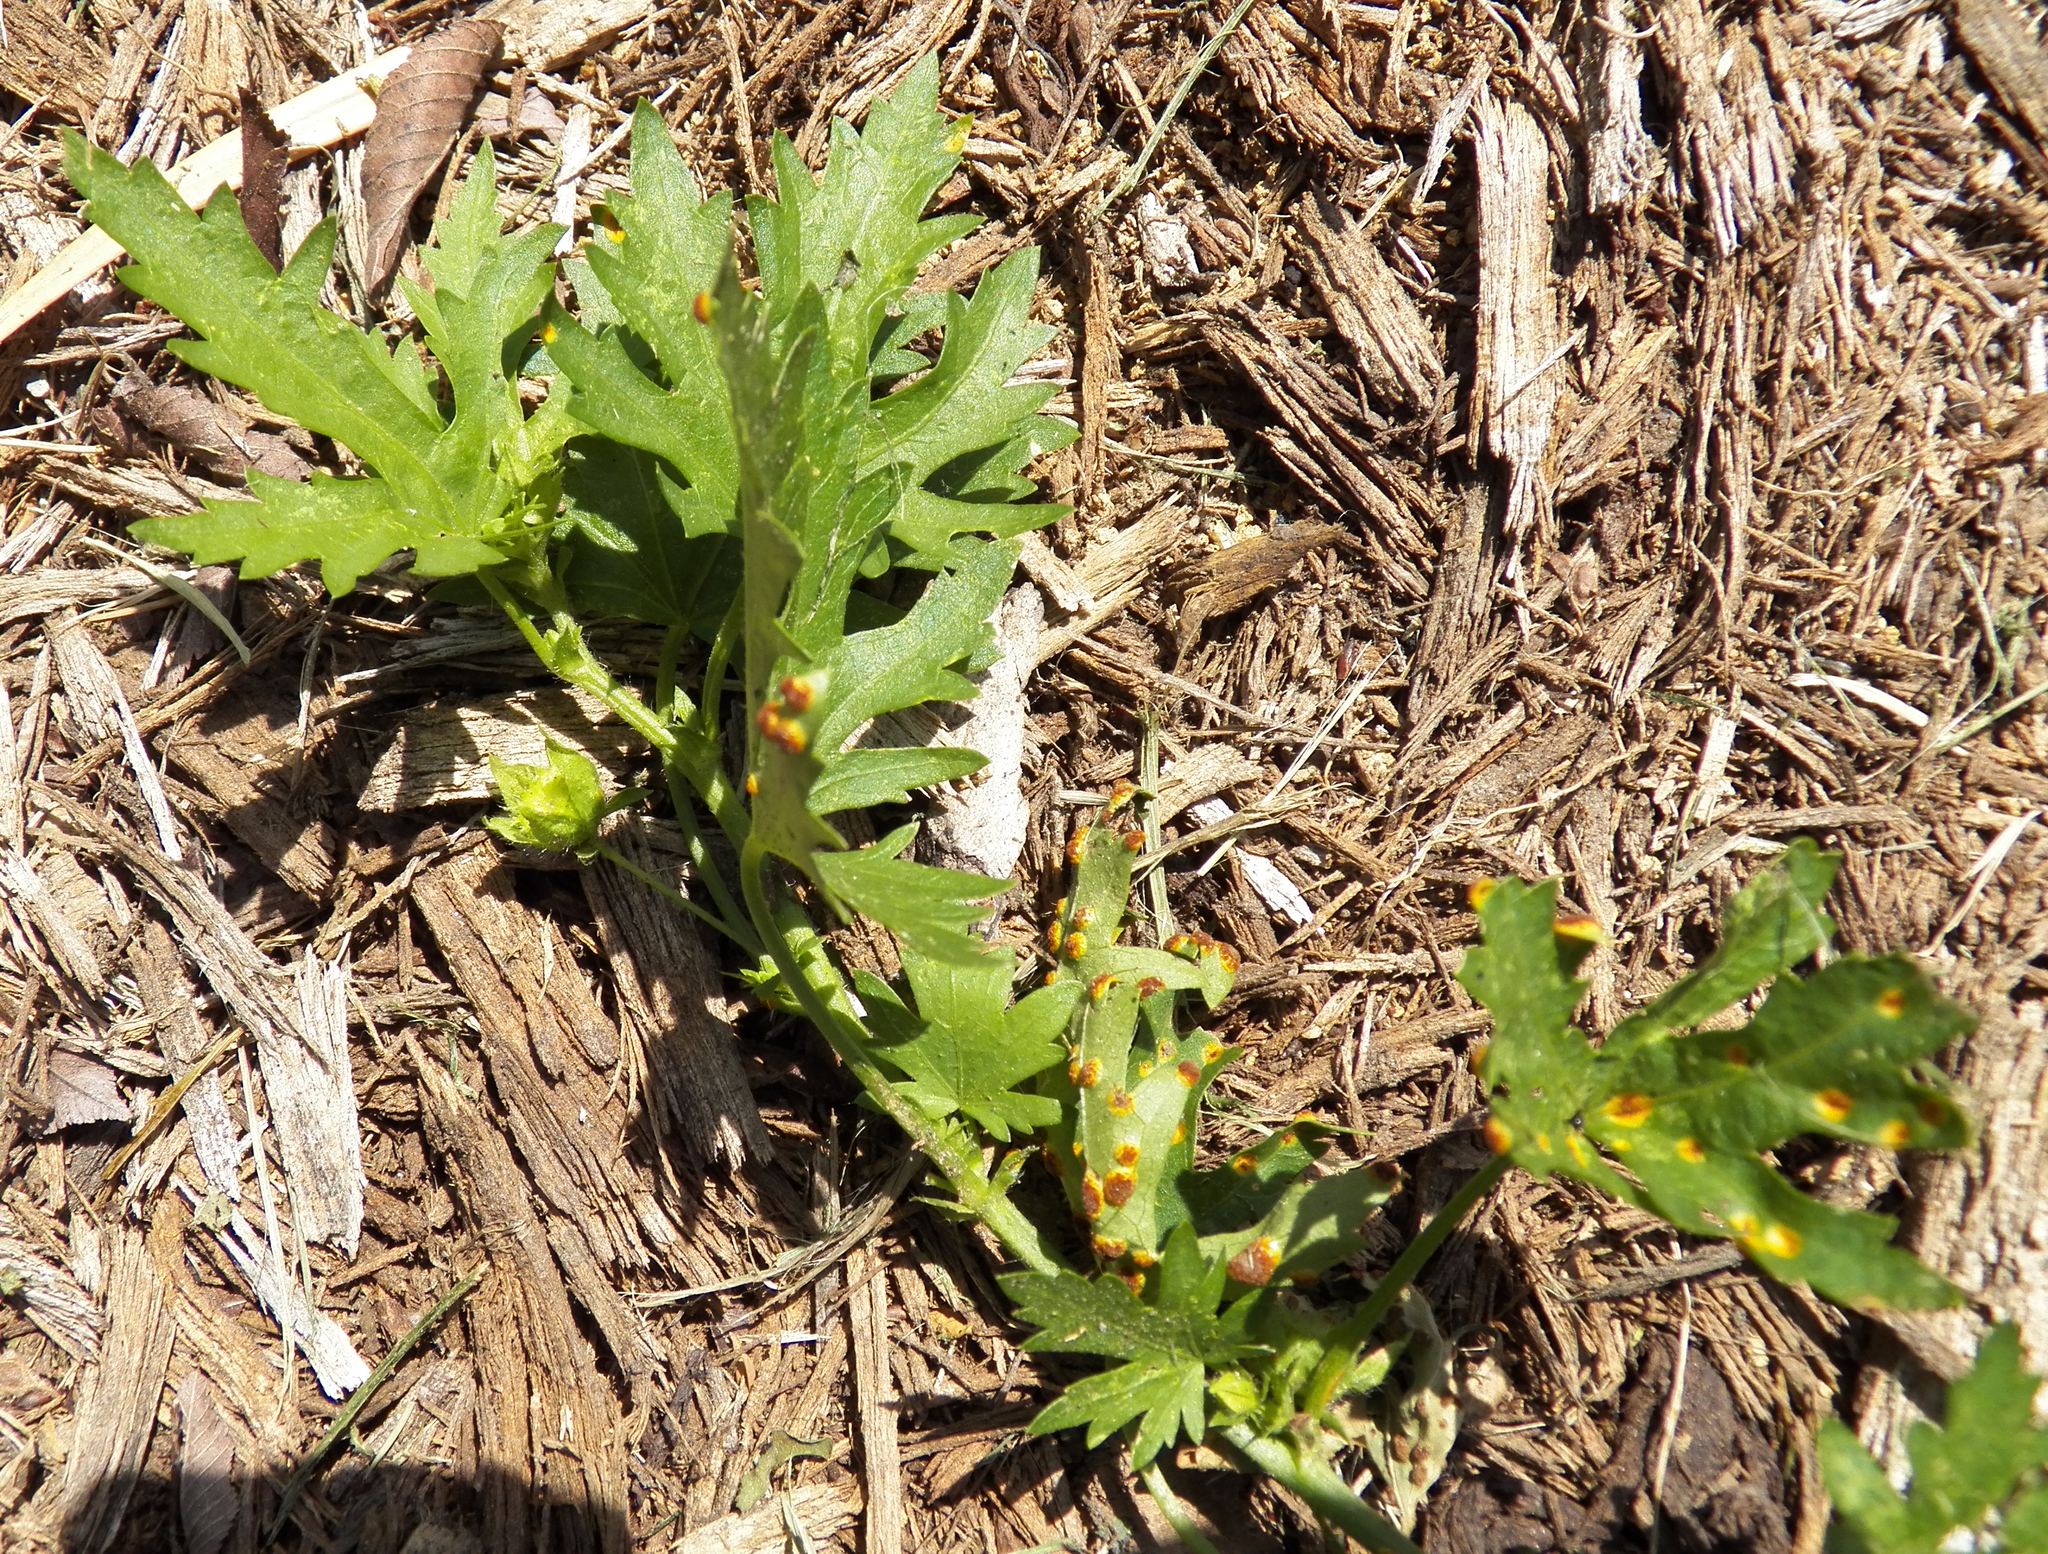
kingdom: Plantae
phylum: Tracheophyta
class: Magnoliopsida
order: Malvales
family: Malvaceae
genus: Modiola
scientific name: Modiola caroliniana
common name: Carolina bristlemallow
